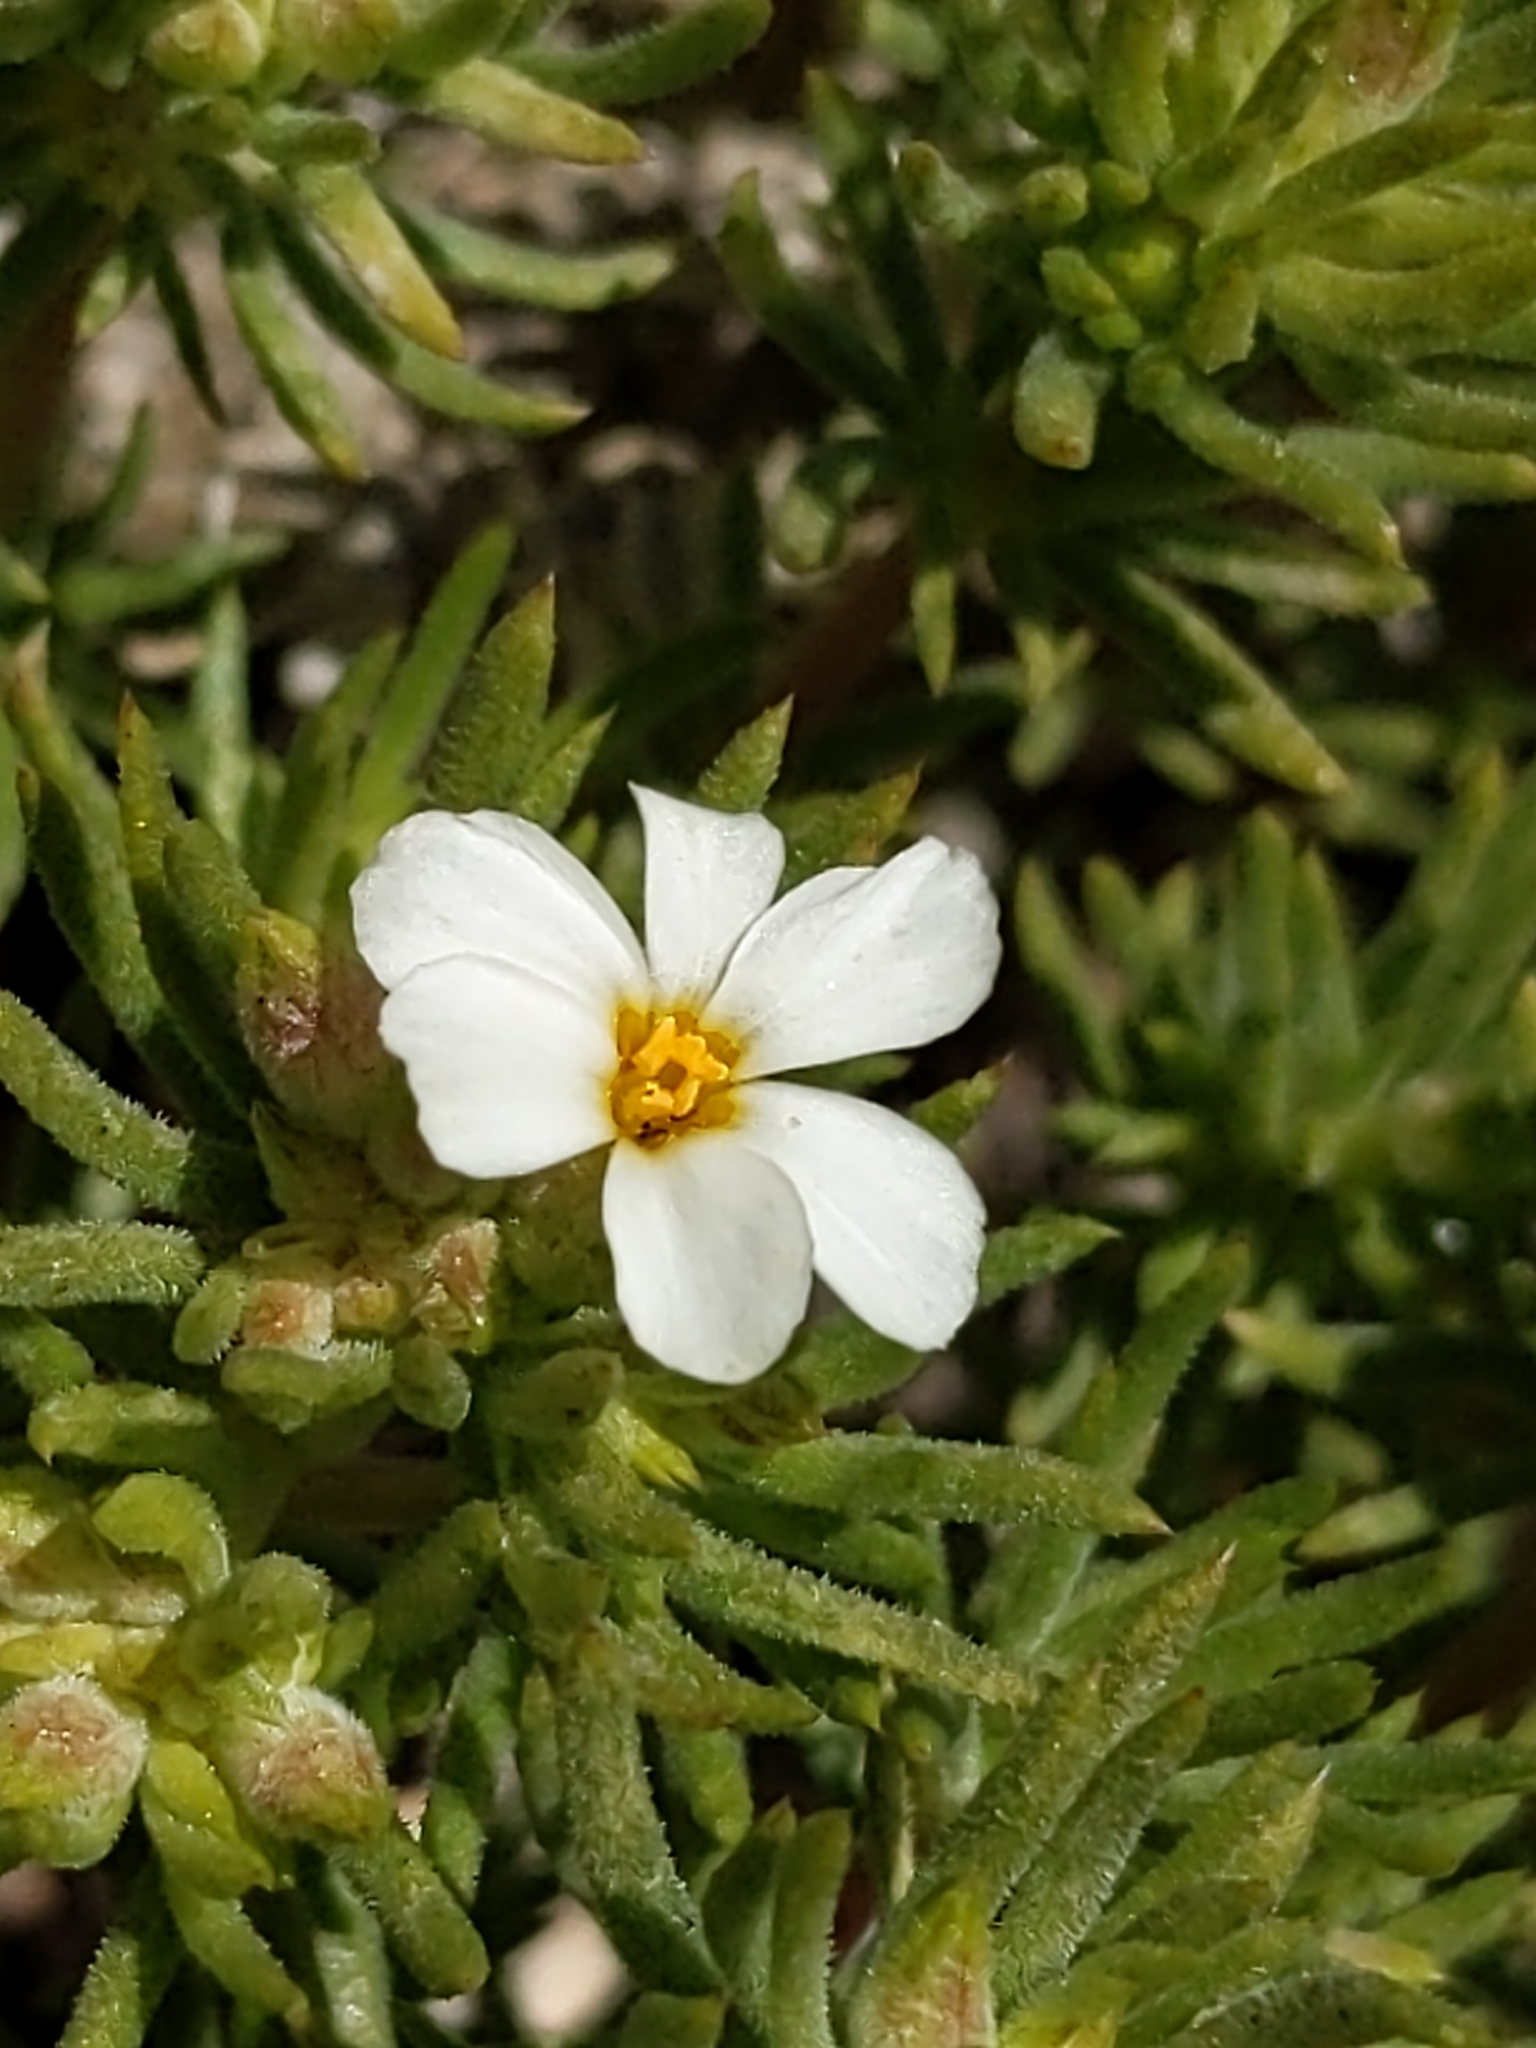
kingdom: Plantae
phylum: Tracheophyta
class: Magnoliopsida
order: Ericales
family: Polemoniaceae
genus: Leptosiphon
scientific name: Leptosiphon nuttallii
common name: Nuttall's linanthus
